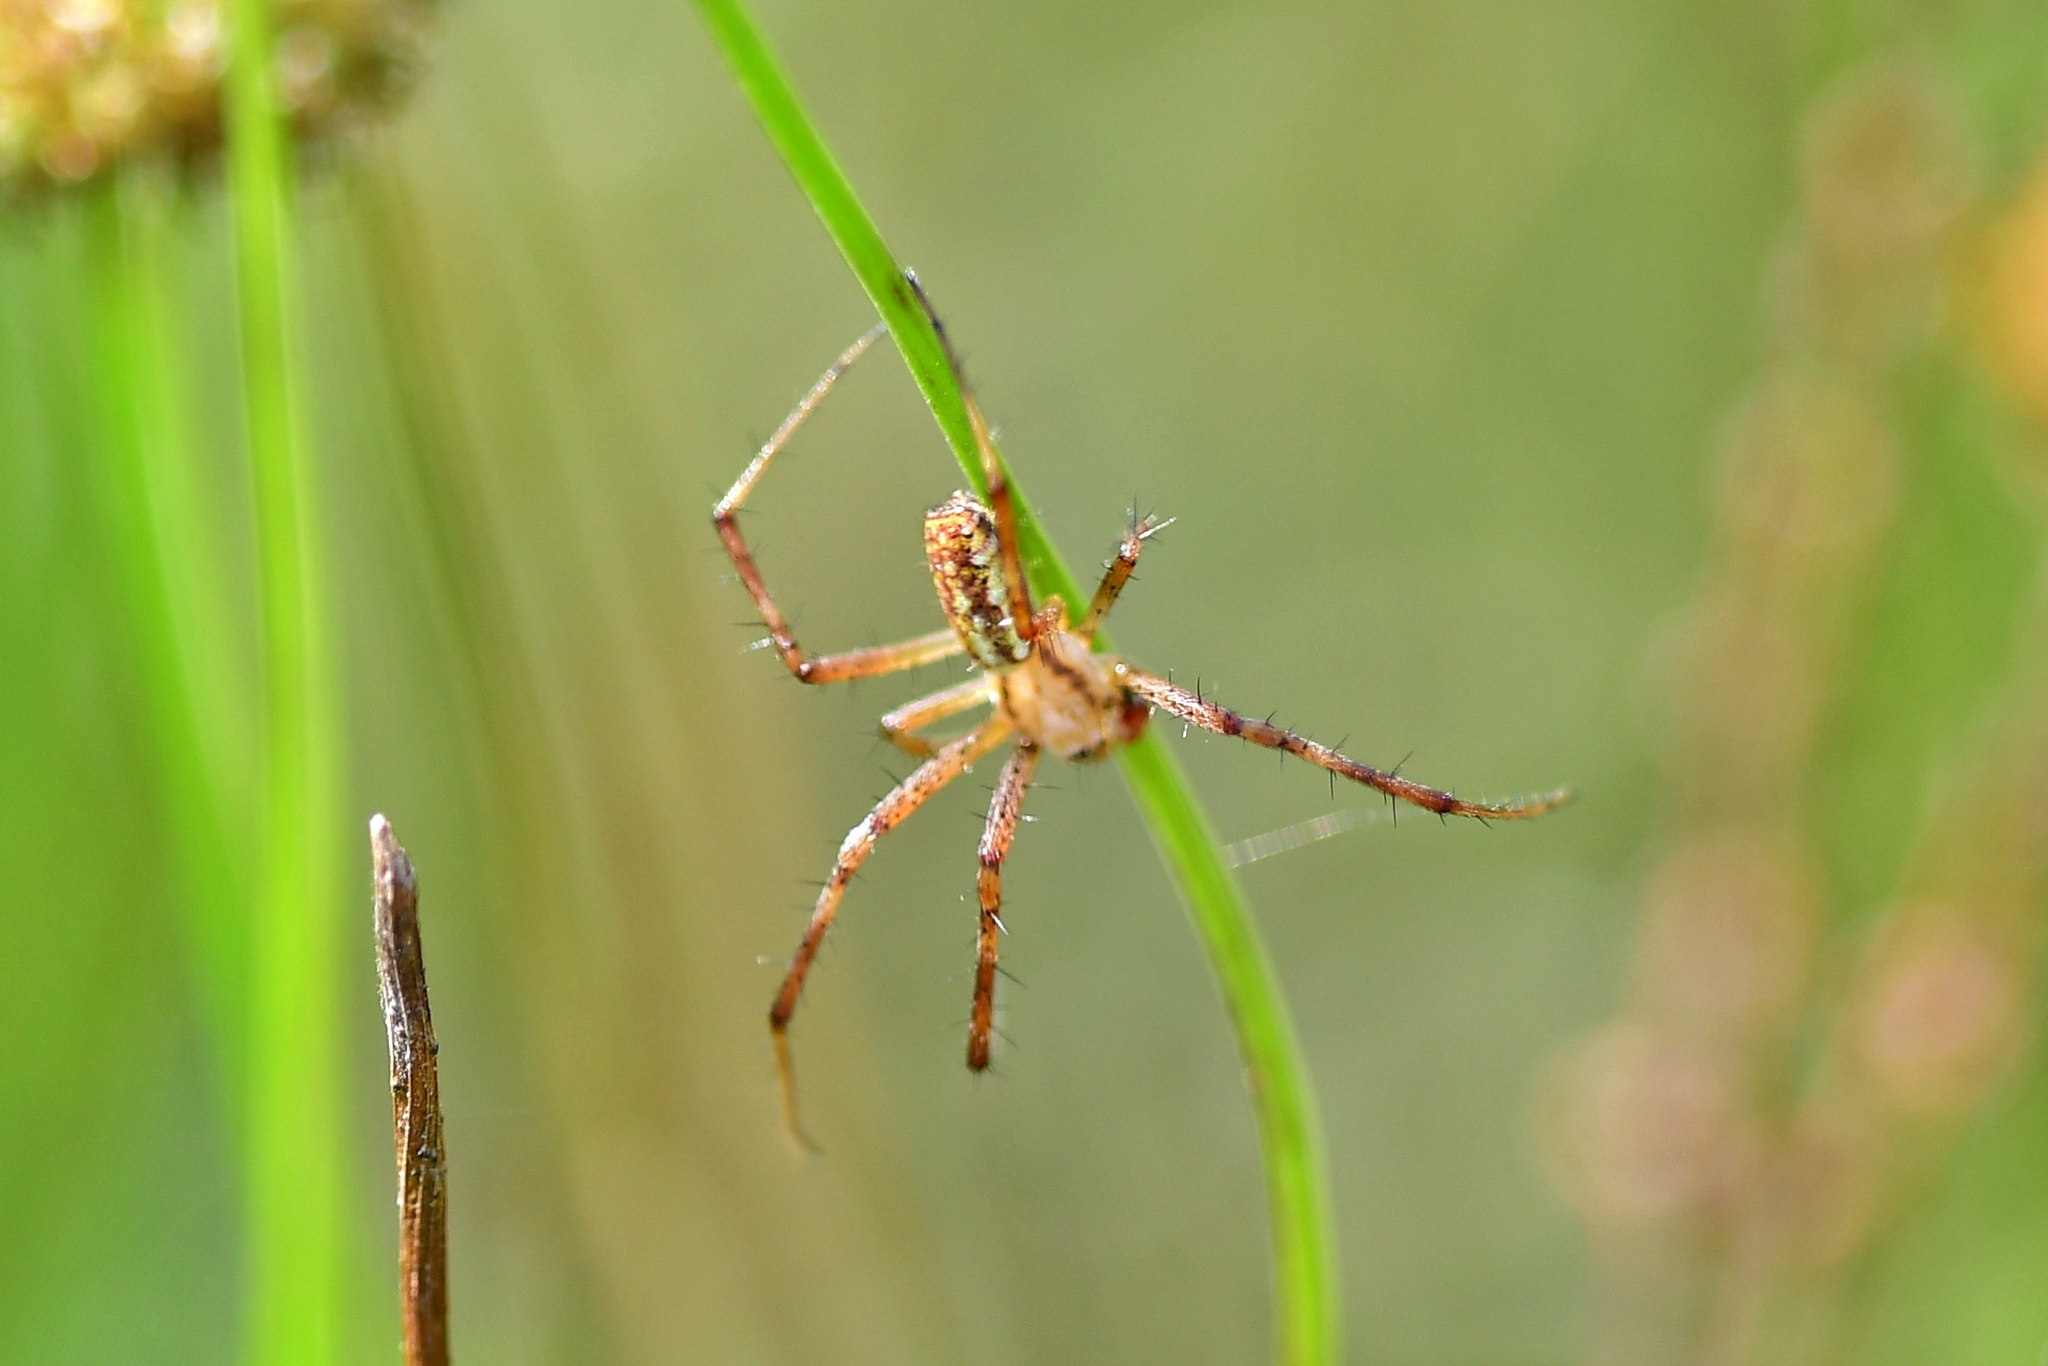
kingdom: Animalia
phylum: Arthropoda
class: Arachnida
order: Araneae
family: Araneidae
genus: Argiope
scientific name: Argiope bruennichi
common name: Wasp spider
